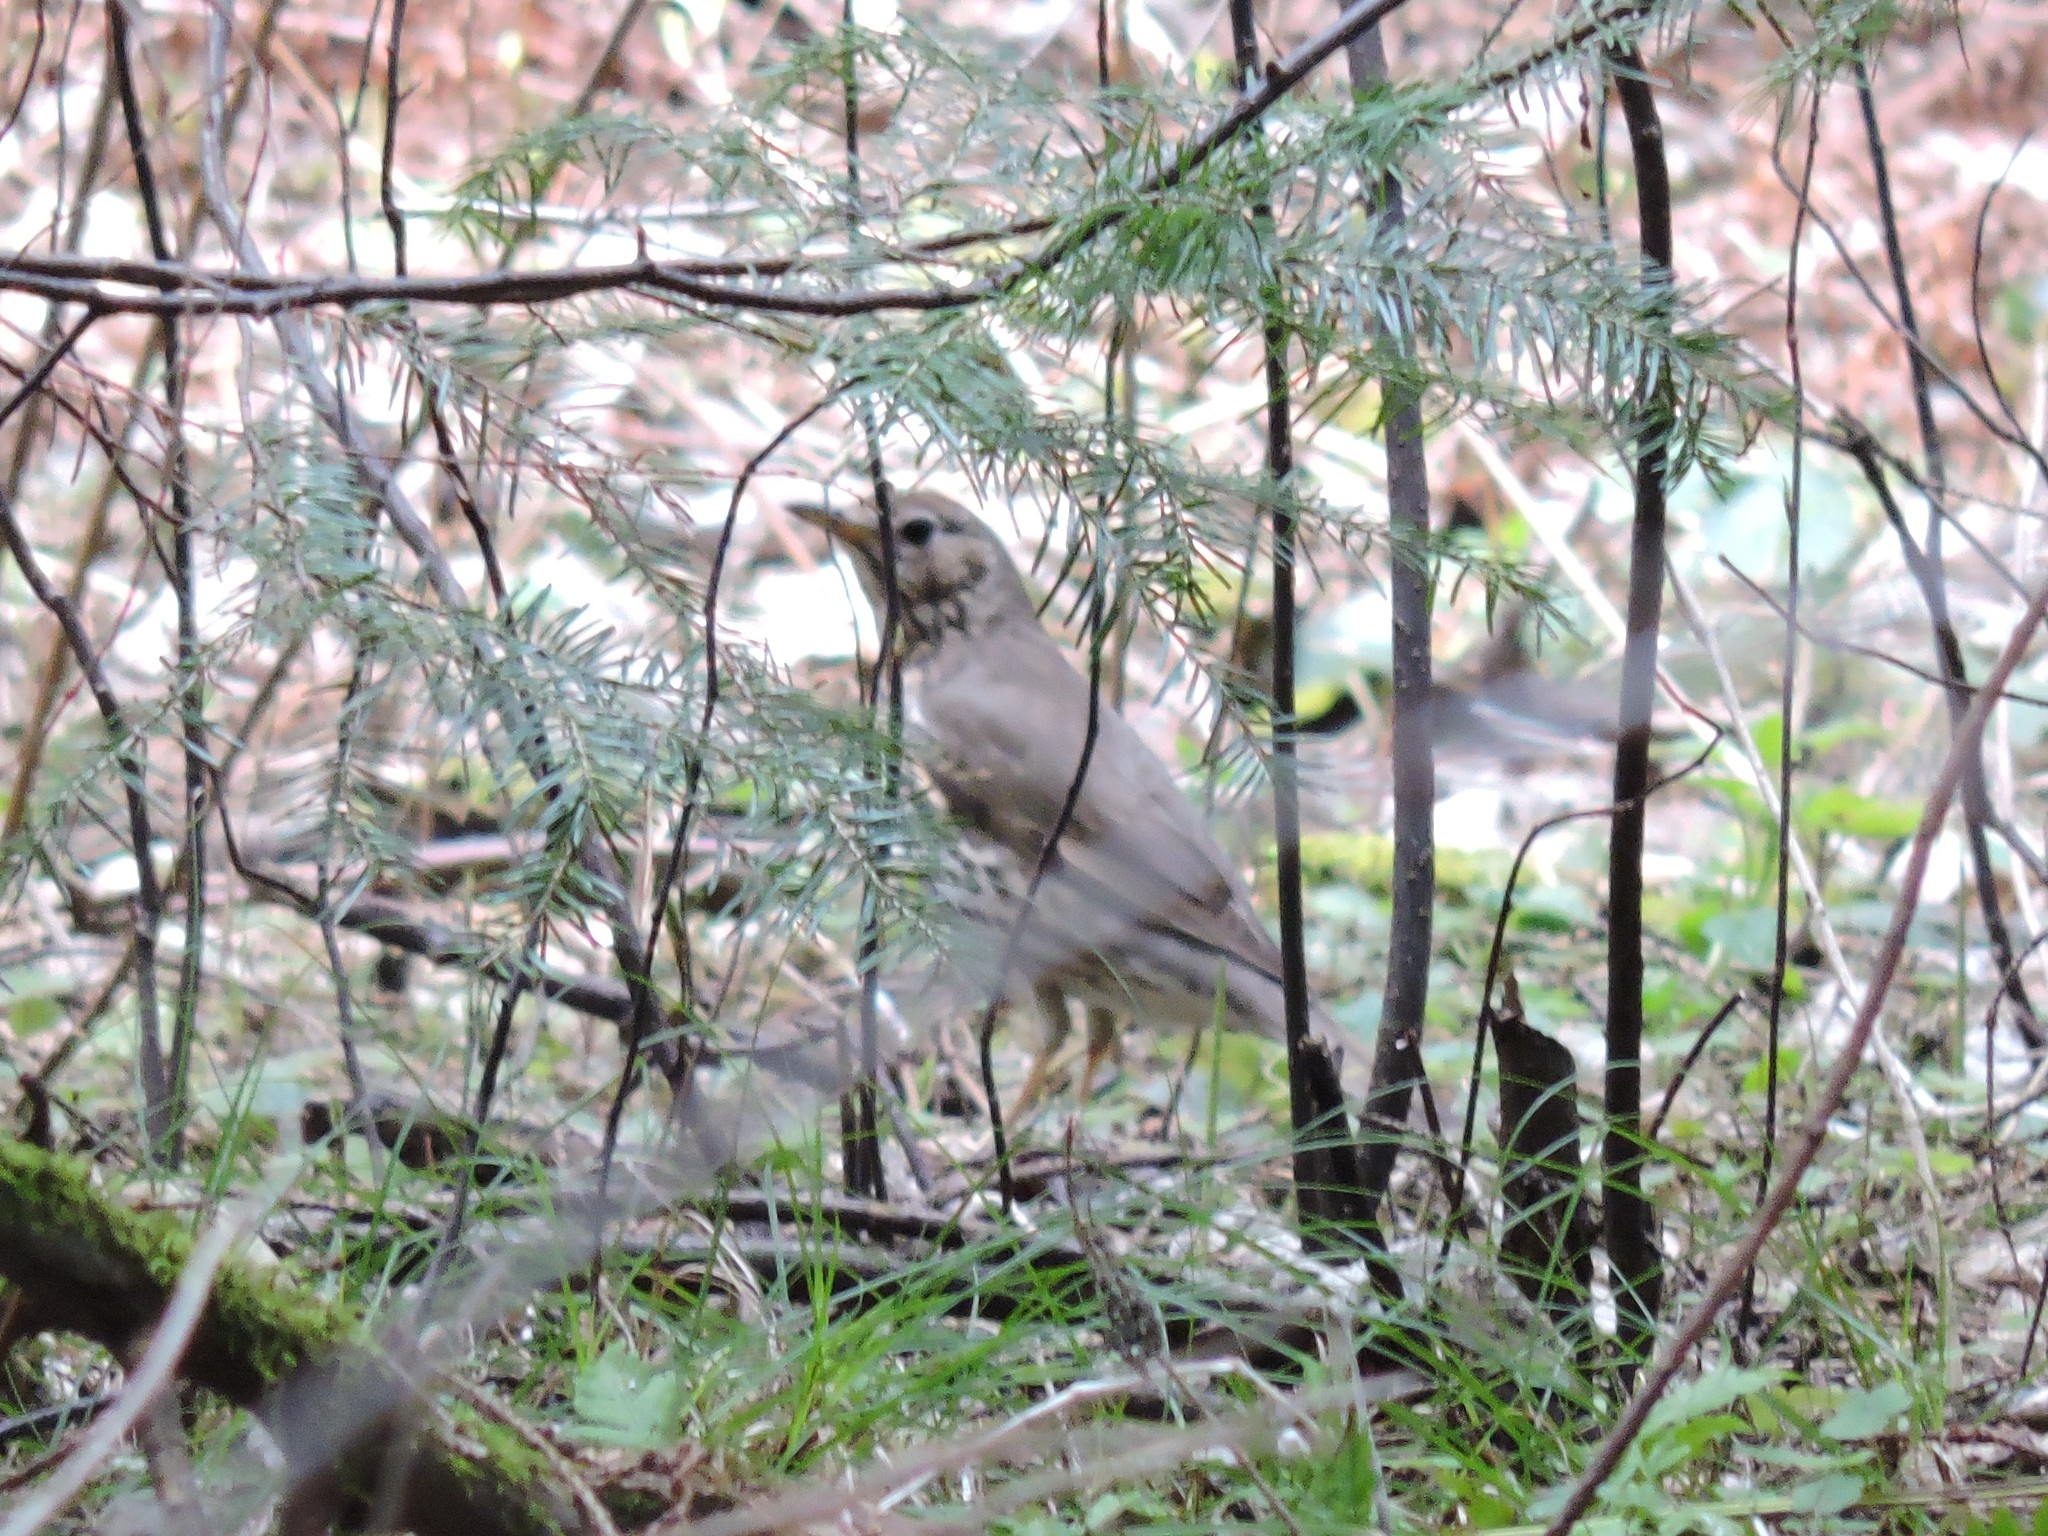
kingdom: Animalia
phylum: Chordata
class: Aves
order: Passeriformes
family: Turdidae
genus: Turdus
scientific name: Turdus philomelos
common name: Song thrush
